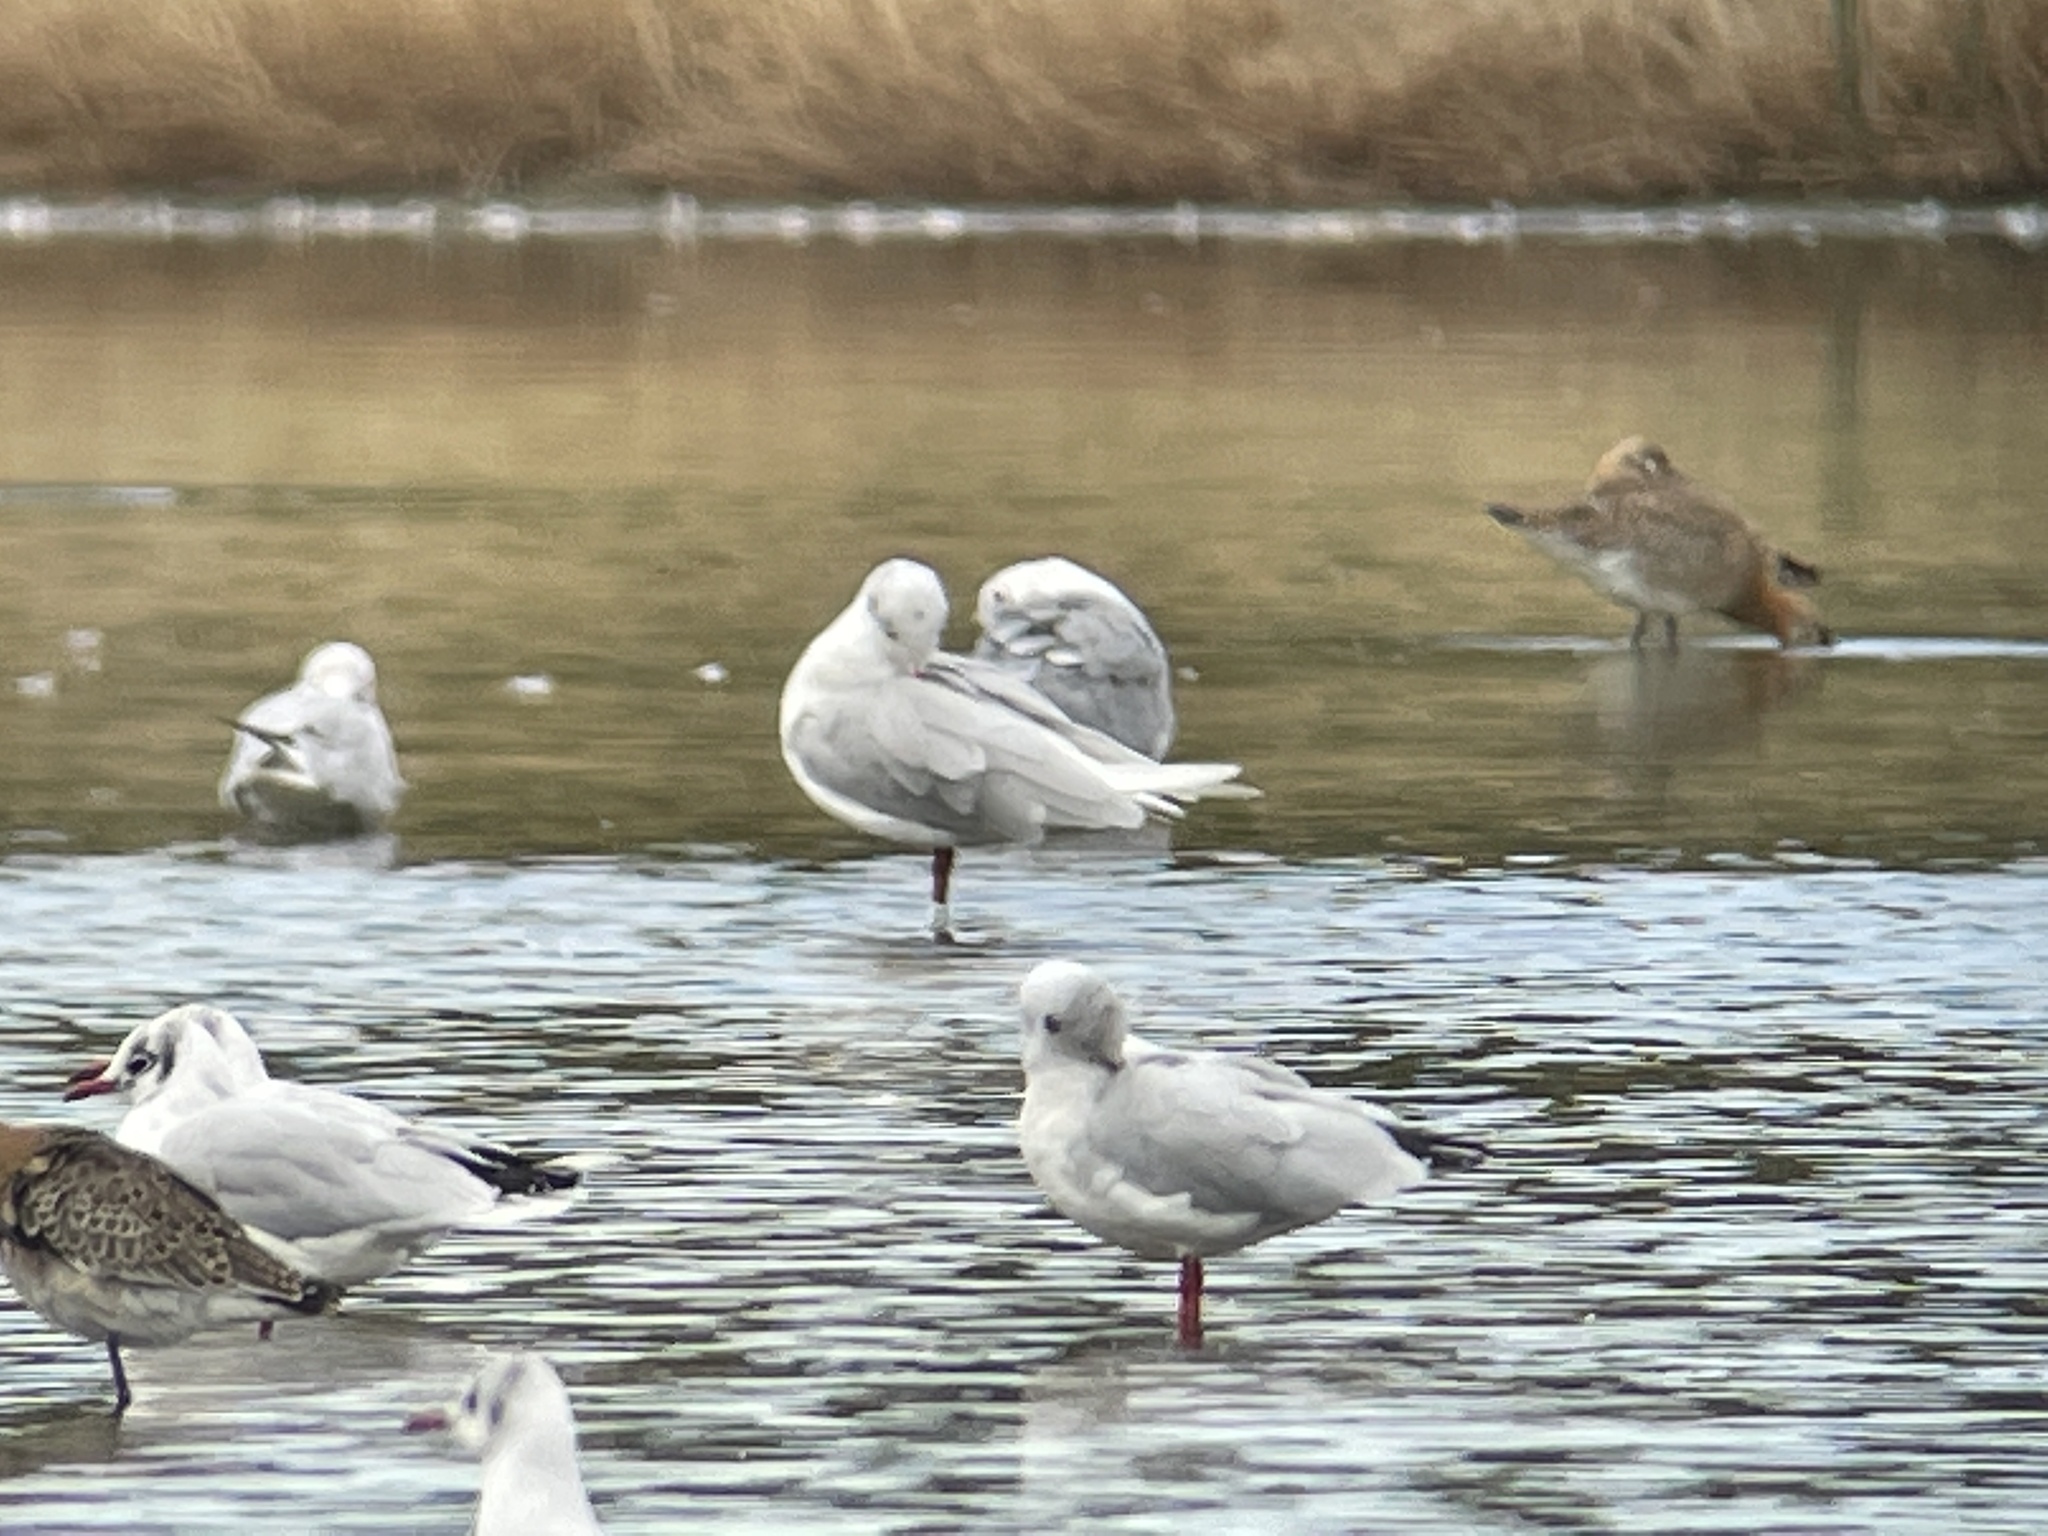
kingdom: Animalia
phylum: Chordata
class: Aves
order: Charadriiformes
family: Laridae
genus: Ichthyaetus
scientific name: Ichthyaetus melanocephalus
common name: Mediterranean gull
